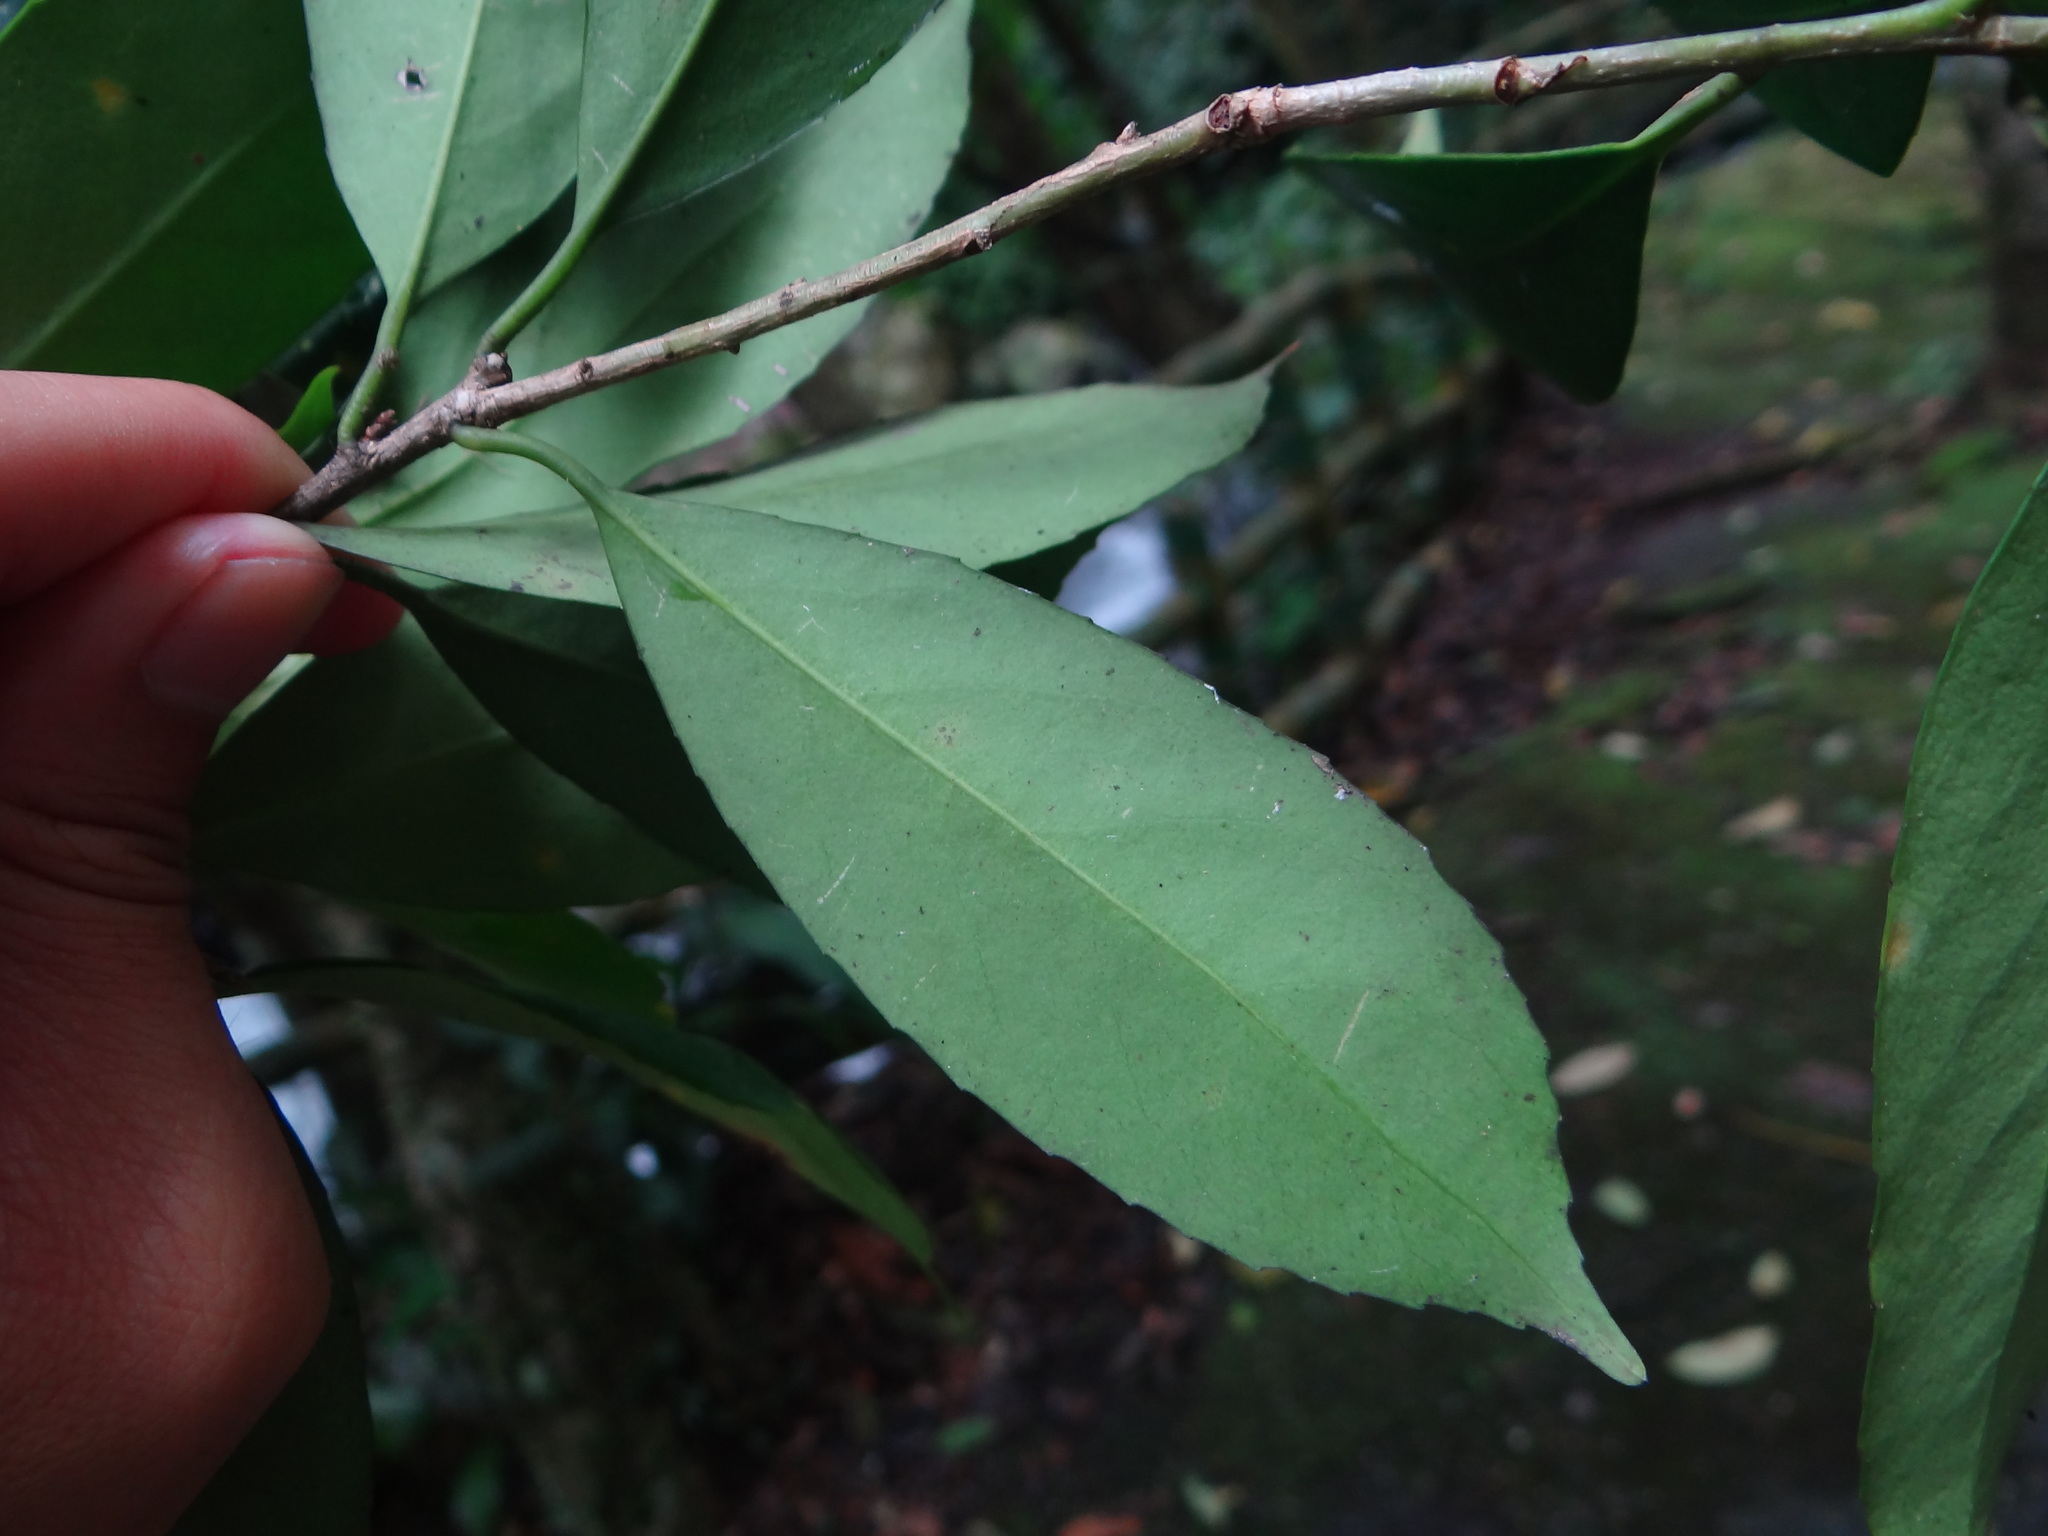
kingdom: Plantae
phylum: Tracheophyta
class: Magnoliopsida
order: Aquifoliales
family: Aquifoliaceae
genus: Ilex
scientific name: Ilex formosana
